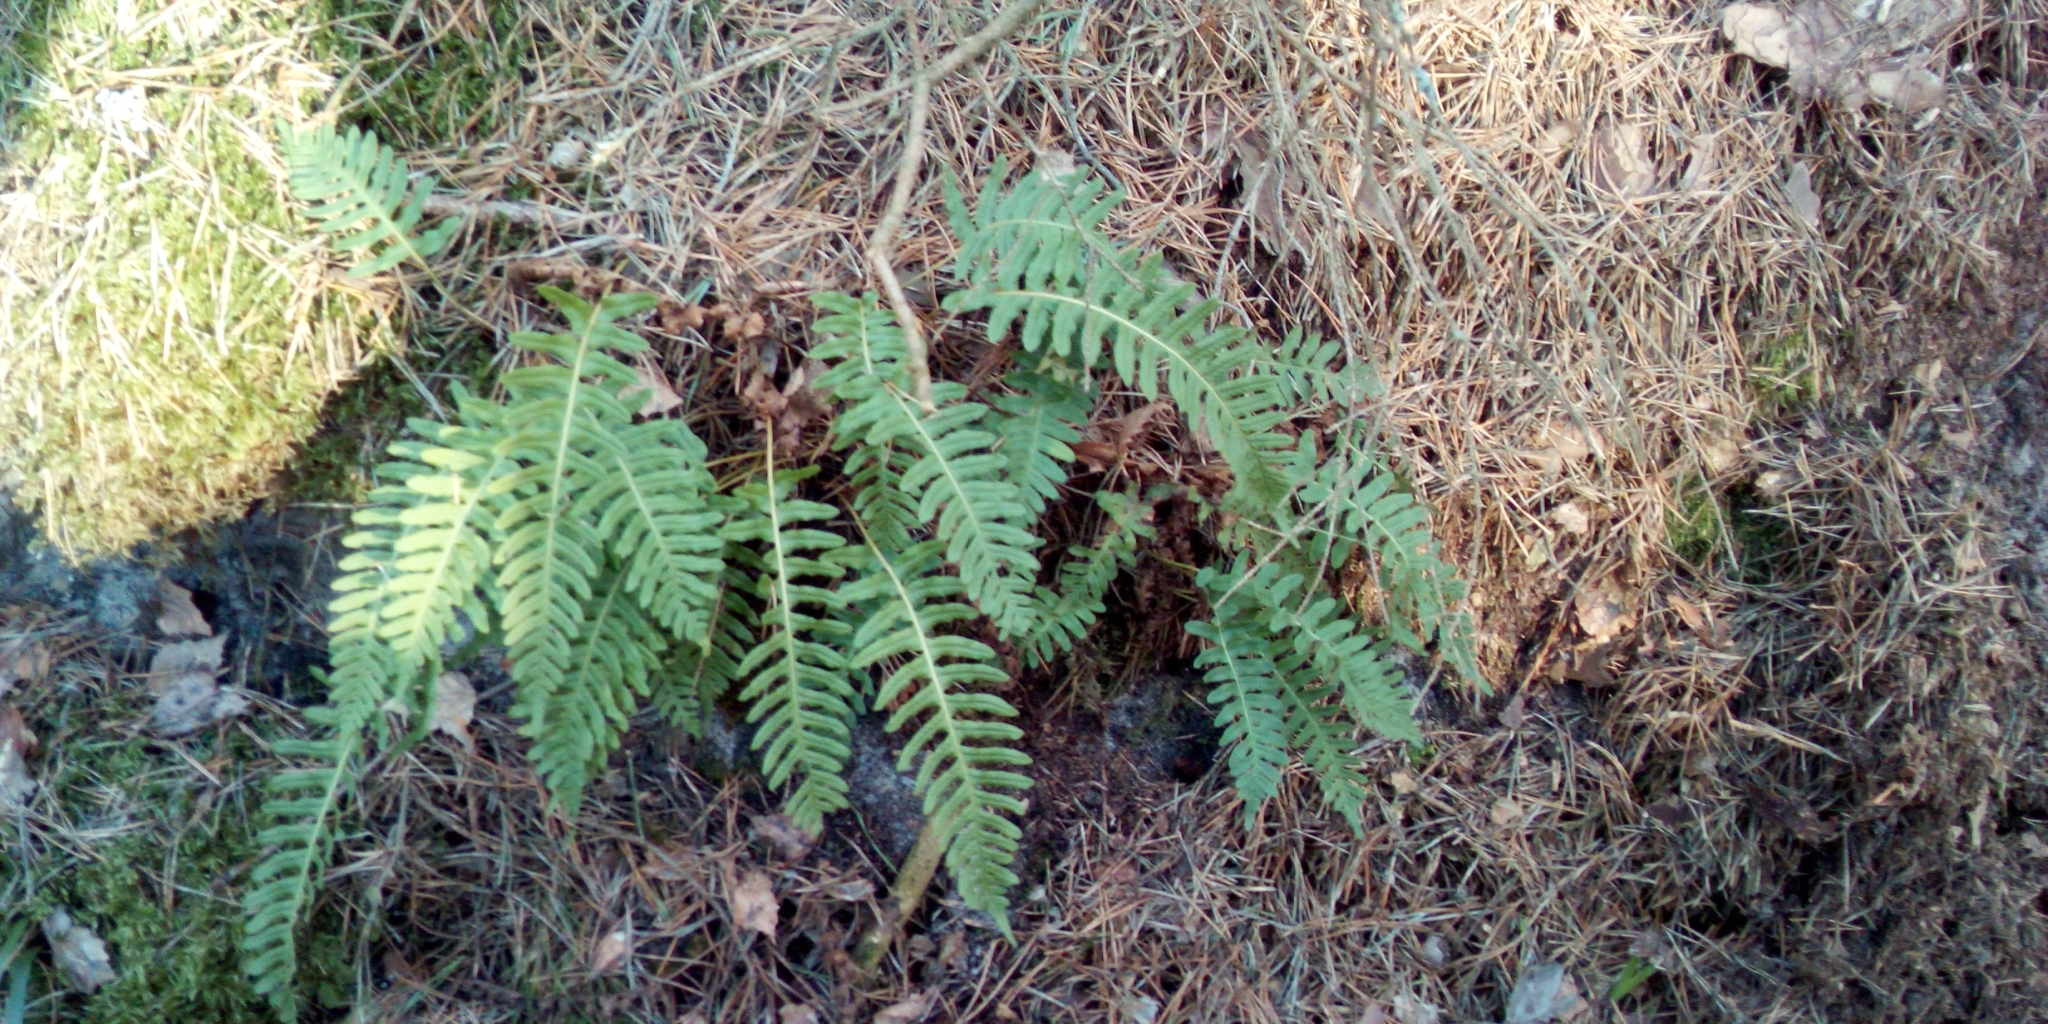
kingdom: Plantae
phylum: Tracheophyta
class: Polypodiopsida
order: Polypodiales
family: Polypodiaceae
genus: Polypodium
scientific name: Polypodium vulgare
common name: Common polypody
